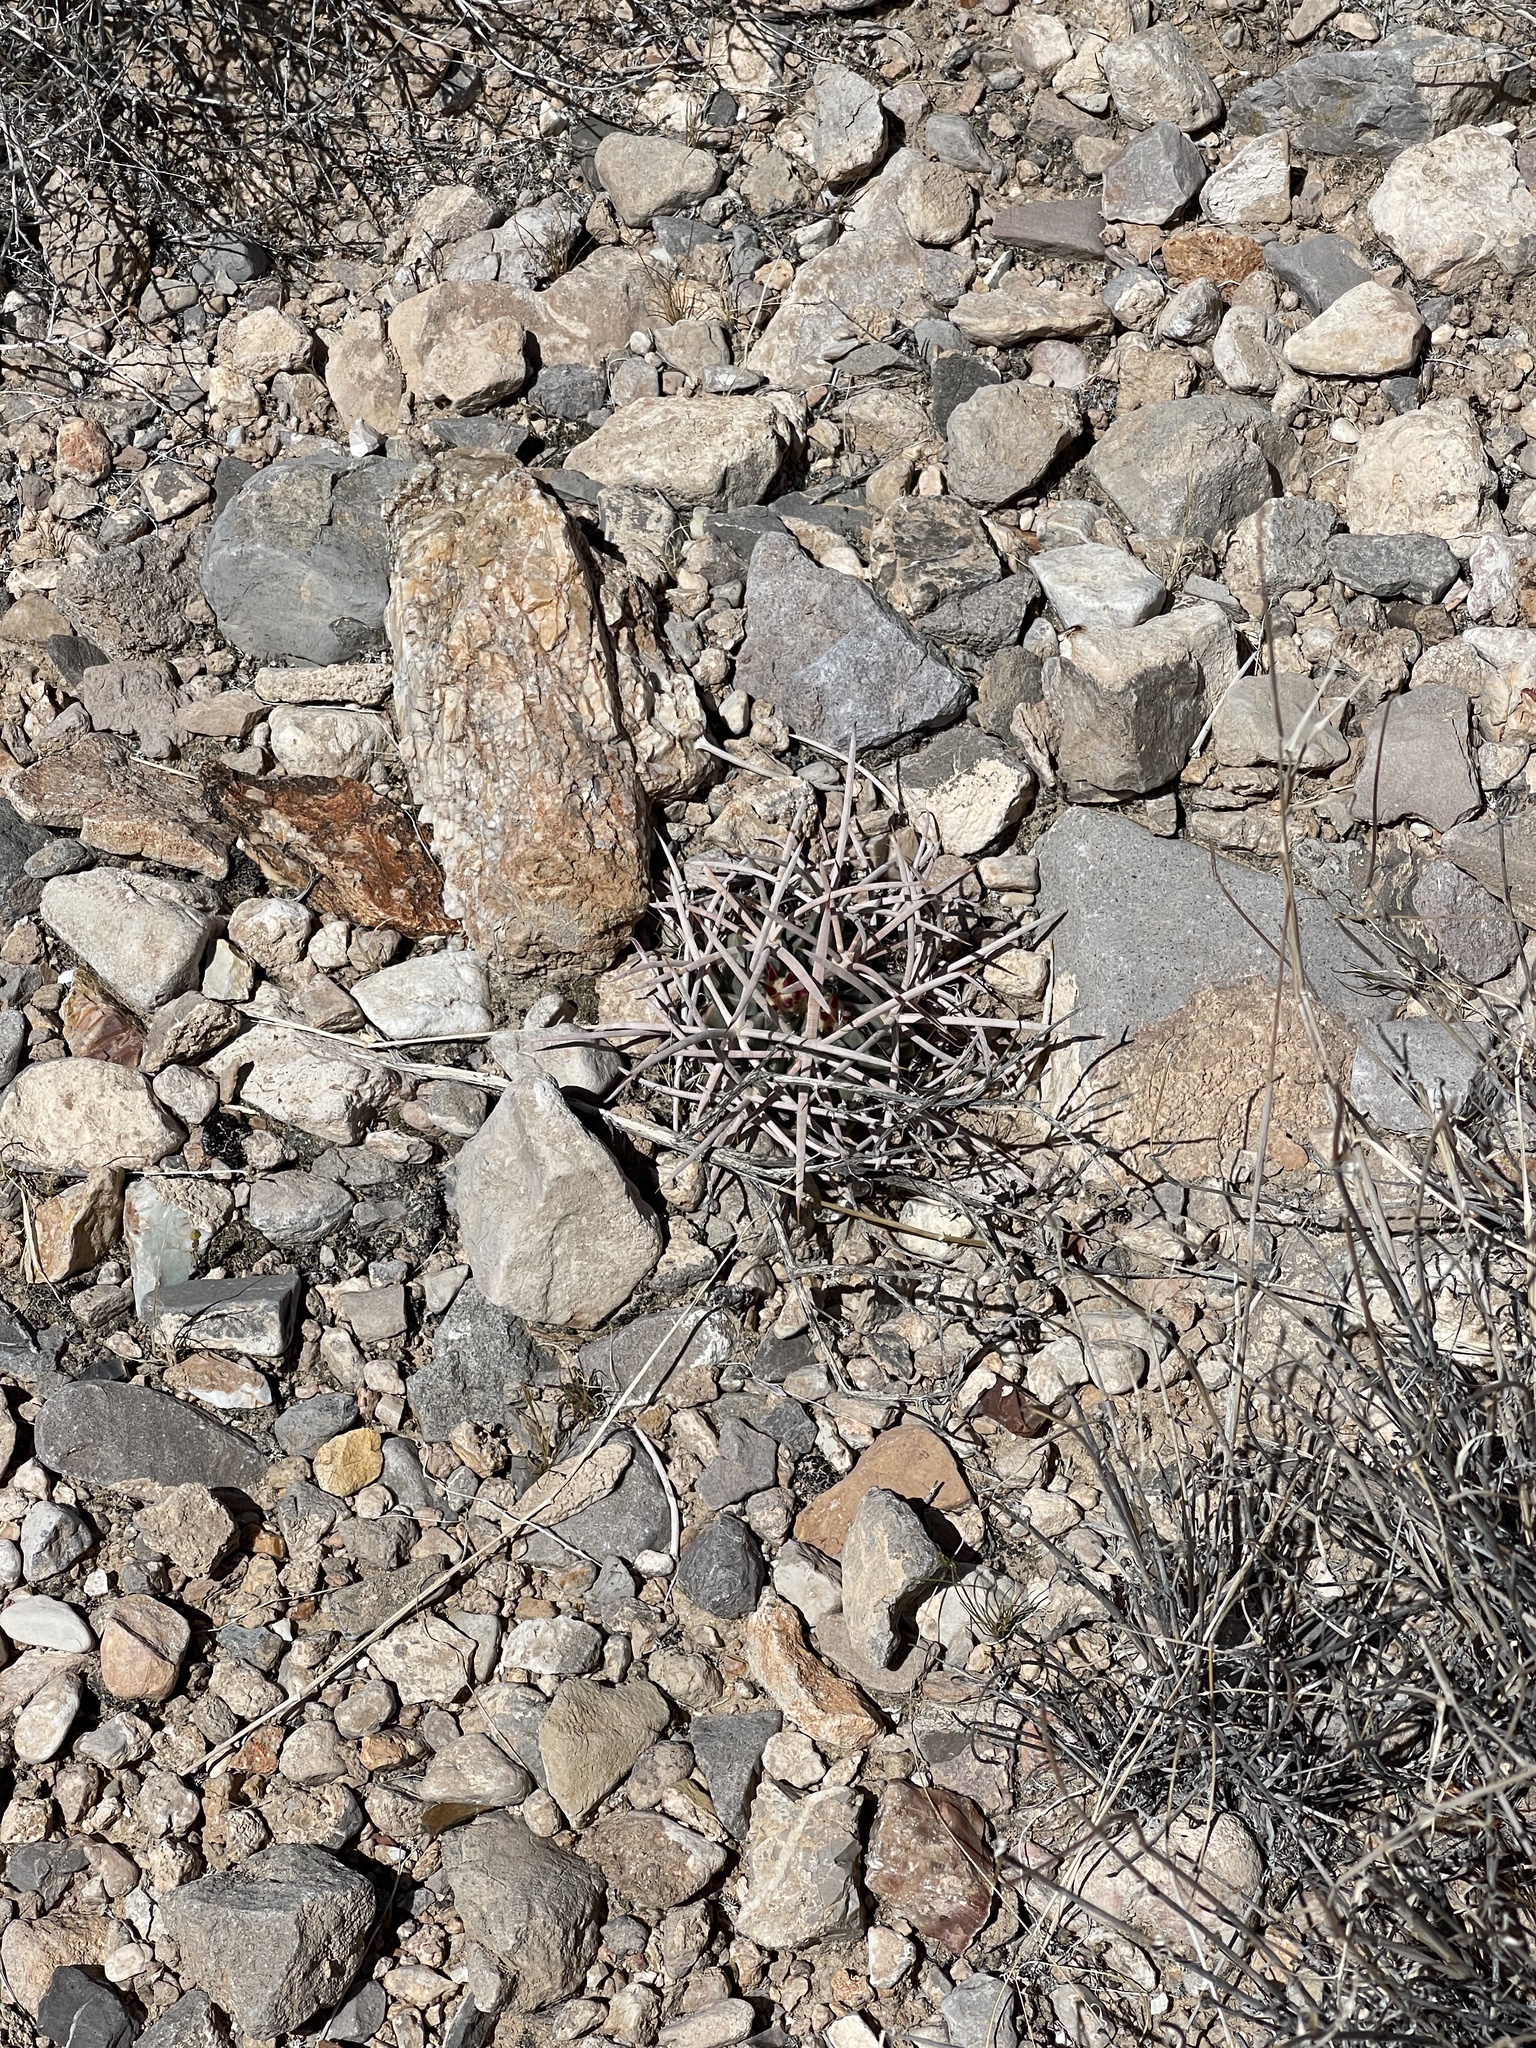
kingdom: Plantae
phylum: Tracheophyta
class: Magnoliopsida
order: Caryophyllales
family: Cactaceae
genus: Echinocactus
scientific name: Echinocactus polycephalus
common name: Cottontop cactus
